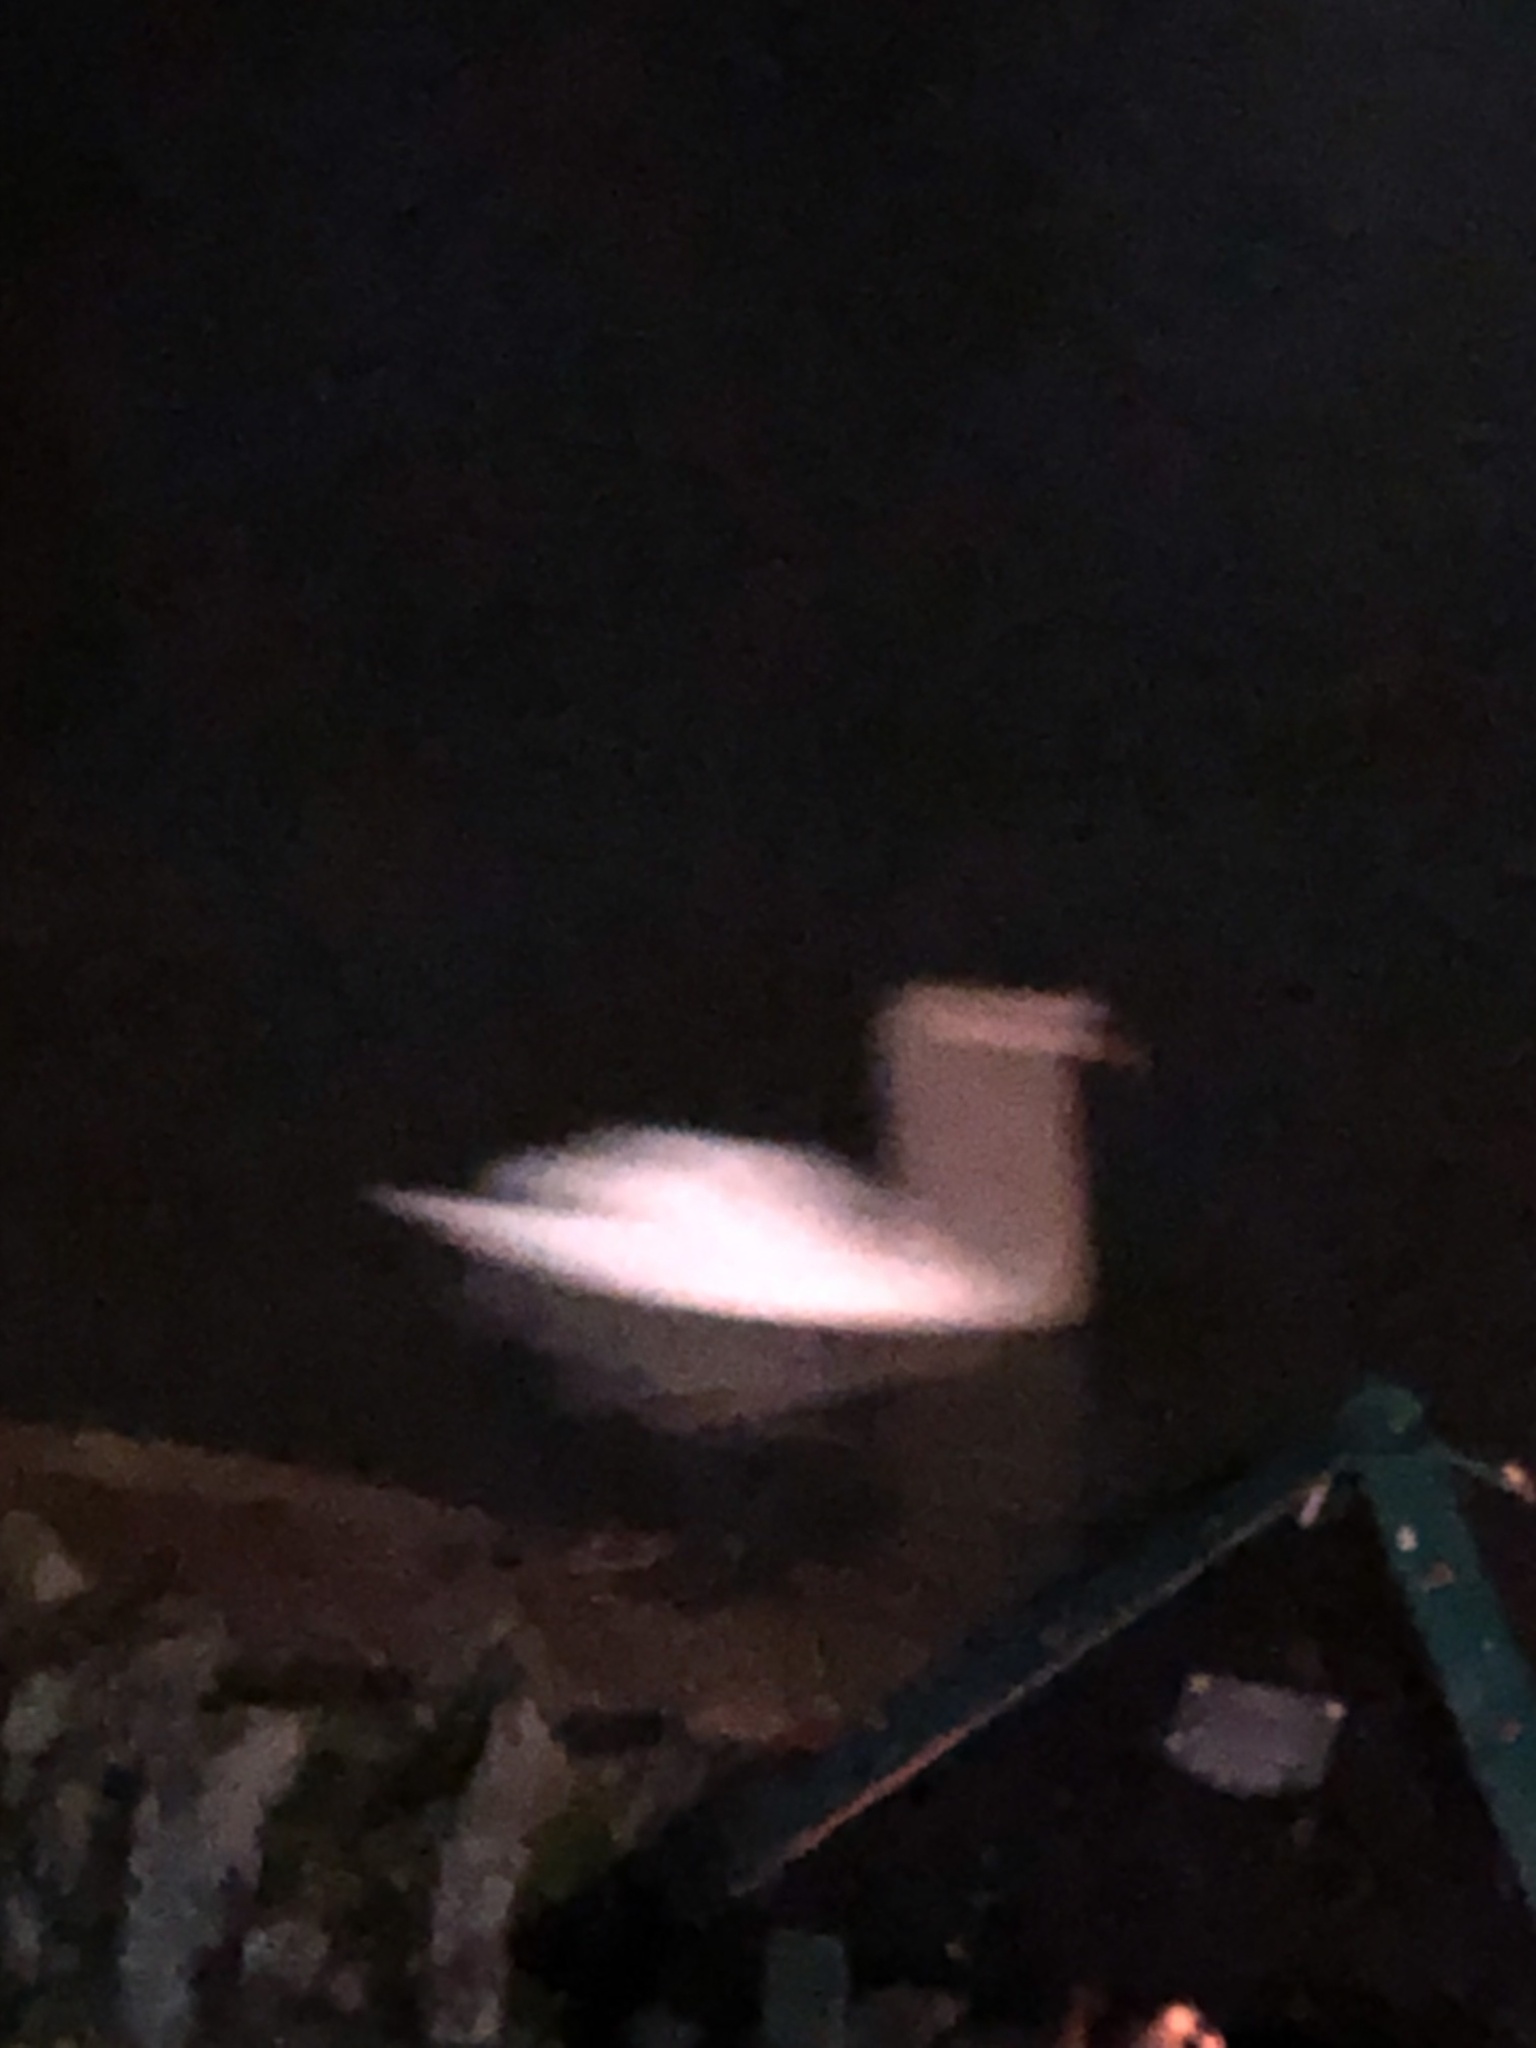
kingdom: Animalia
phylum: Chordata
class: Aves
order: Anseriformes
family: Anatidae
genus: Cygnus
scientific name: Cygnus olor
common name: Mute swan
